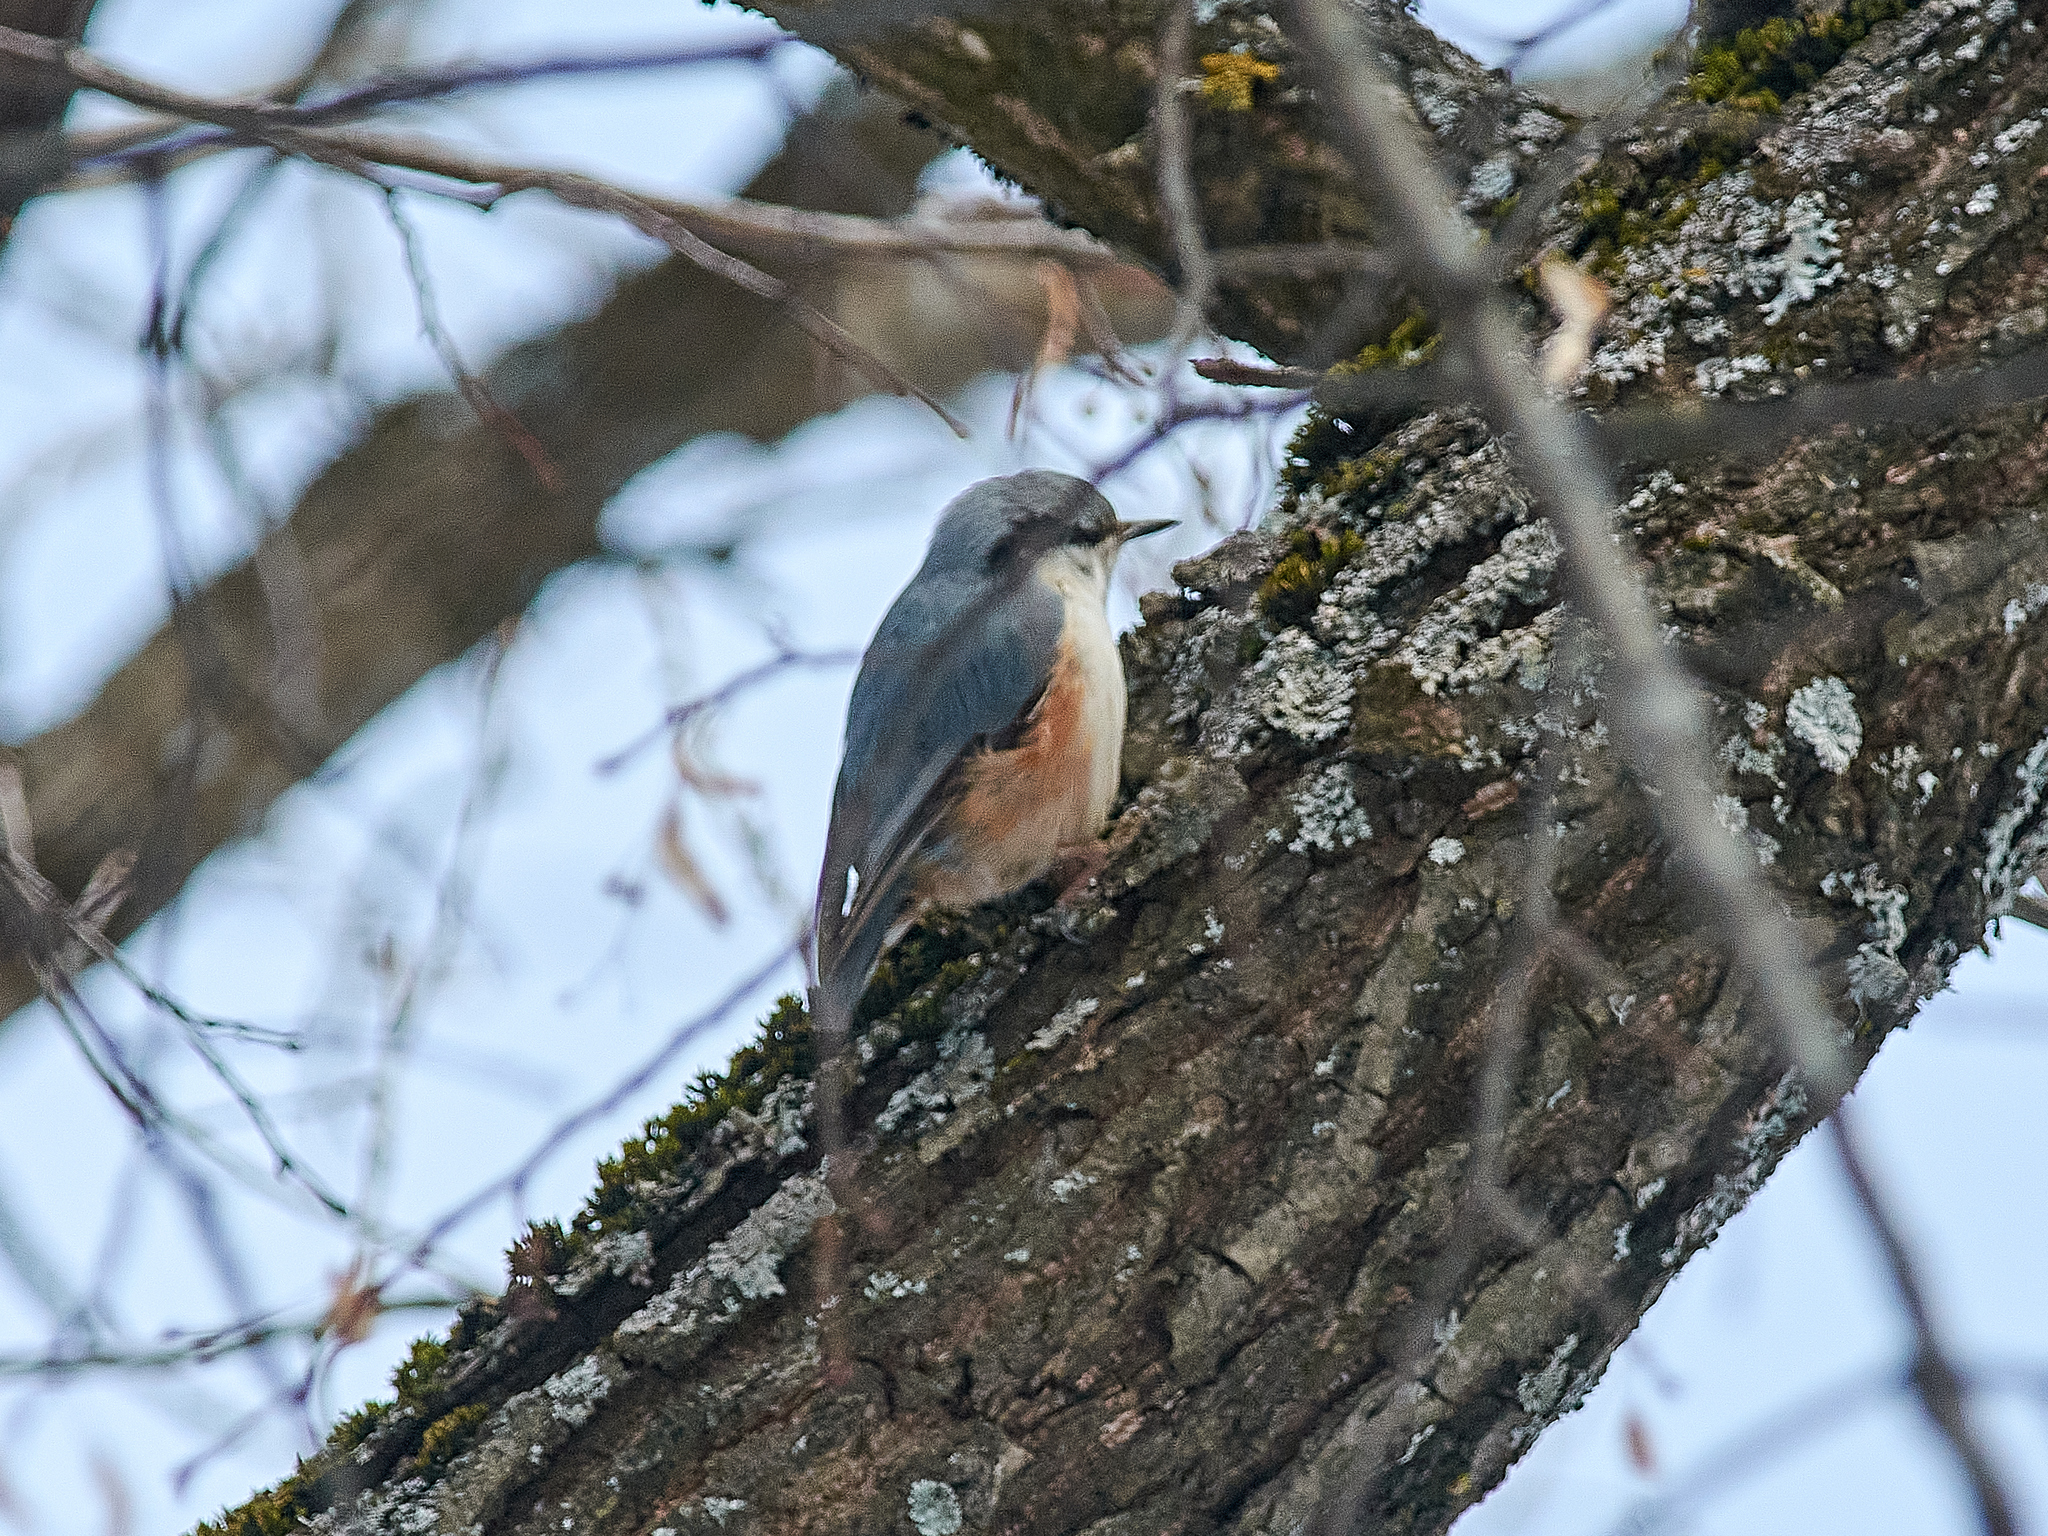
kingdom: Animalia
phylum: Chordata
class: Aves
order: Passeriformes
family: Sittidae
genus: Sitta
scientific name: Sitta europaea
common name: Eurasian nuthatch
